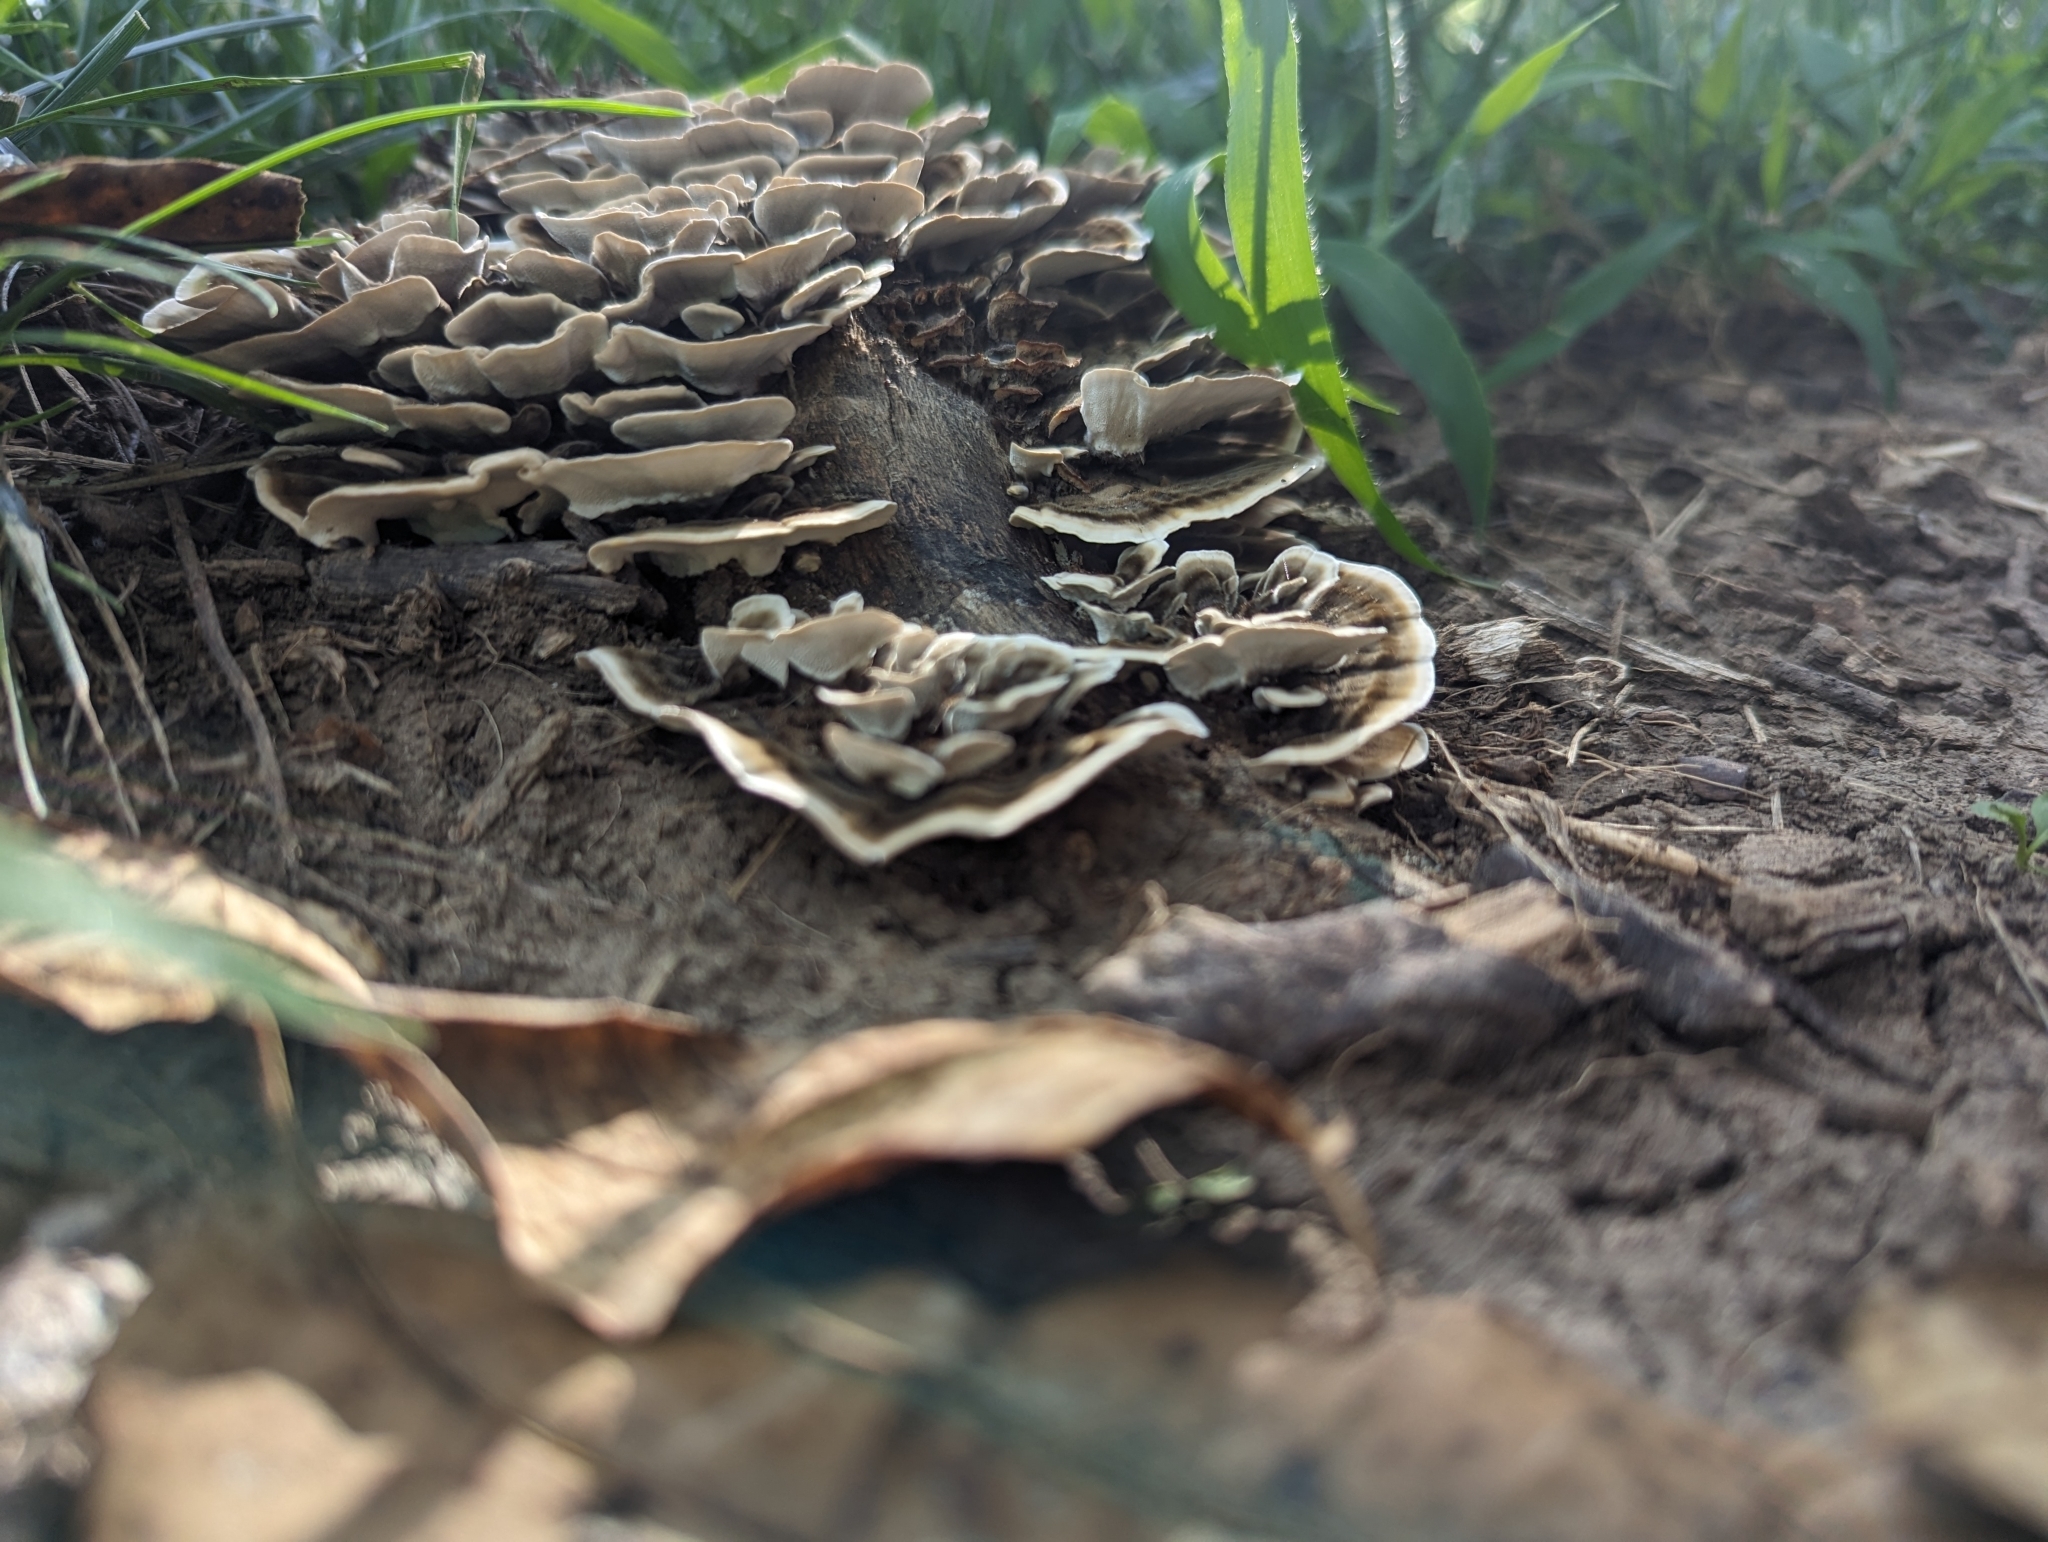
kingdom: Fungi
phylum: Basidiomycota
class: Agaricomycetes
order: Polyporales
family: Polyporaceae
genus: Trametes
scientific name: Trametes versicolor
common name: Turkeytail
